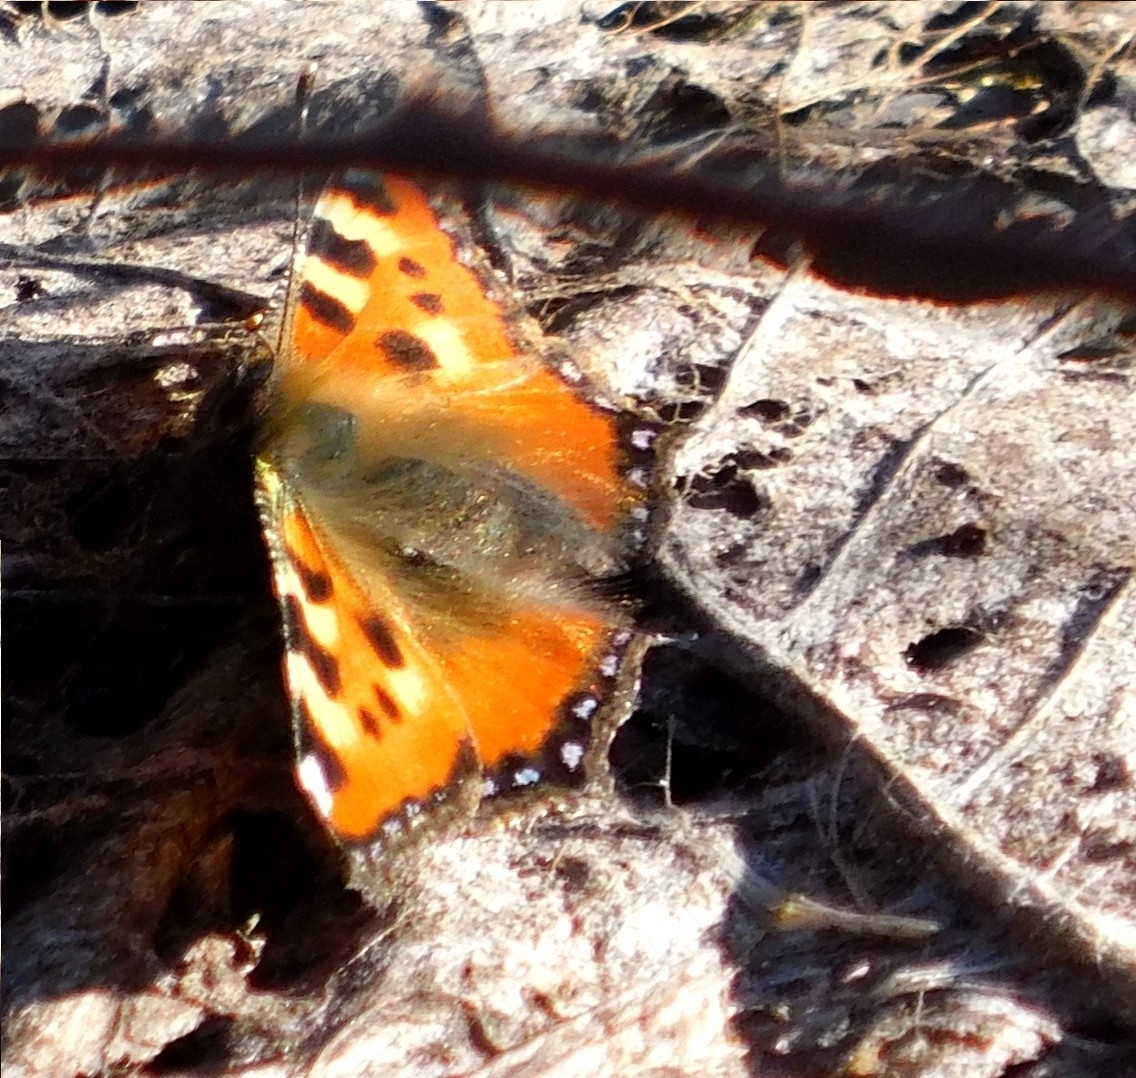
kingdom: Animalia
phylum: Arthropoda
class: Insecta
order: Lepidoptera
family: Nymphalidae
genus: Aglais
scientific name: Aglais urticae
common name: Small tortoiseshell
